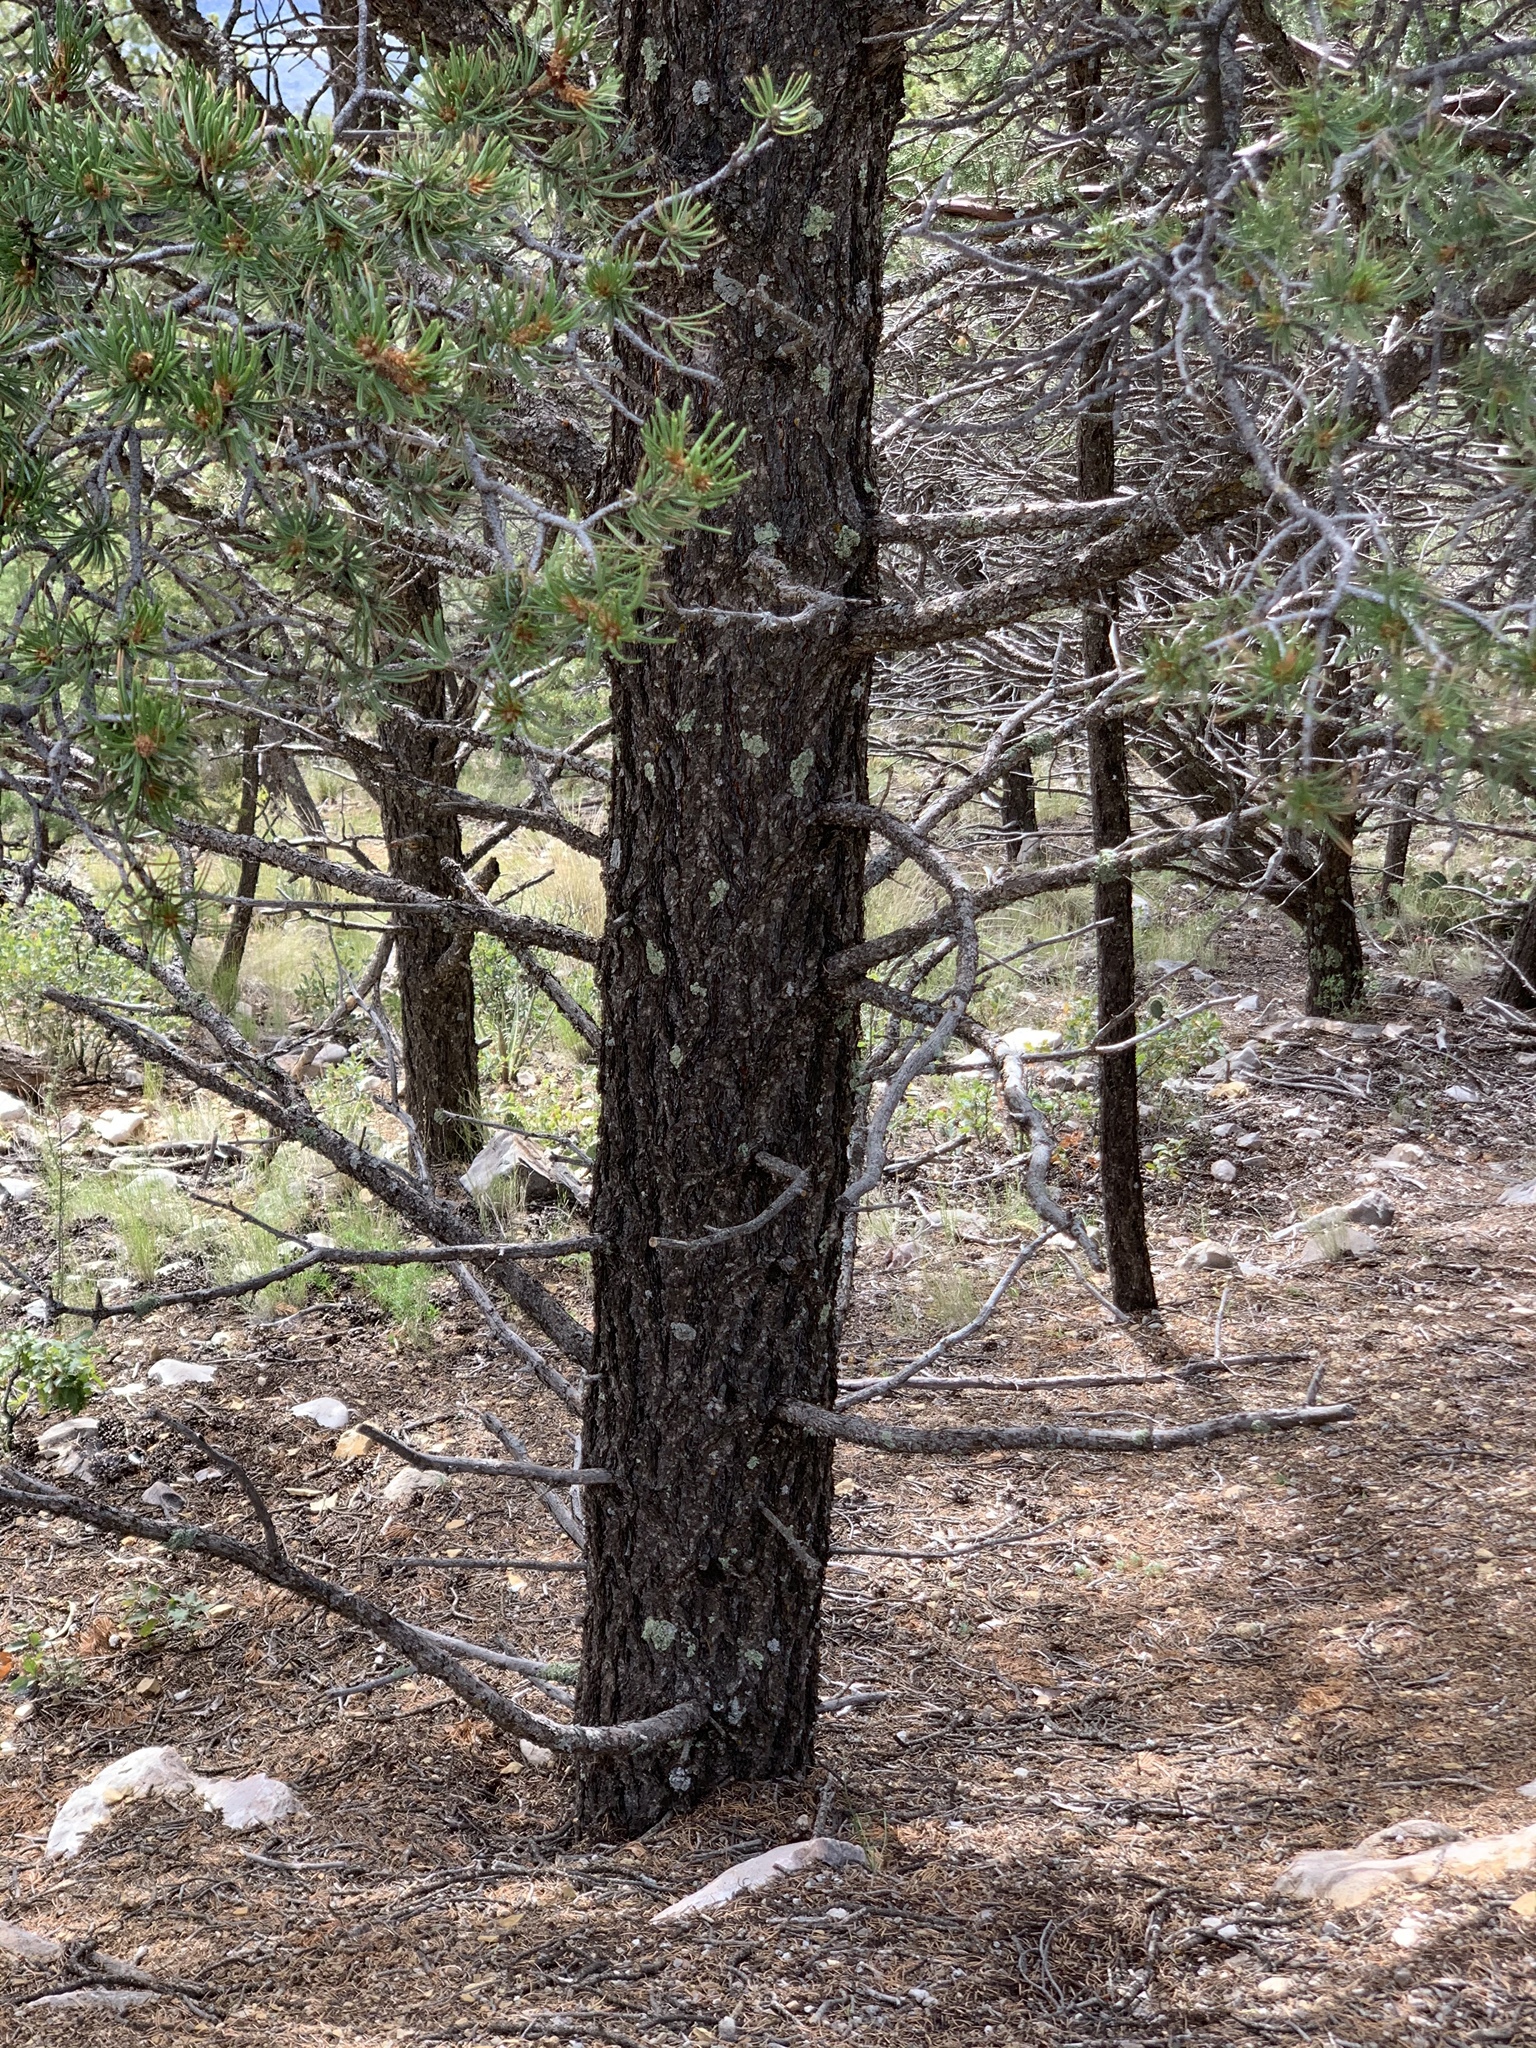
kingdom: Plantae
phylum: Tracheophyta
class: Pinopsida
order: Pinales
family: Pinaceae
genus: Pinus
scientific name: Pinus edulis
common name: Colorado pinyon
